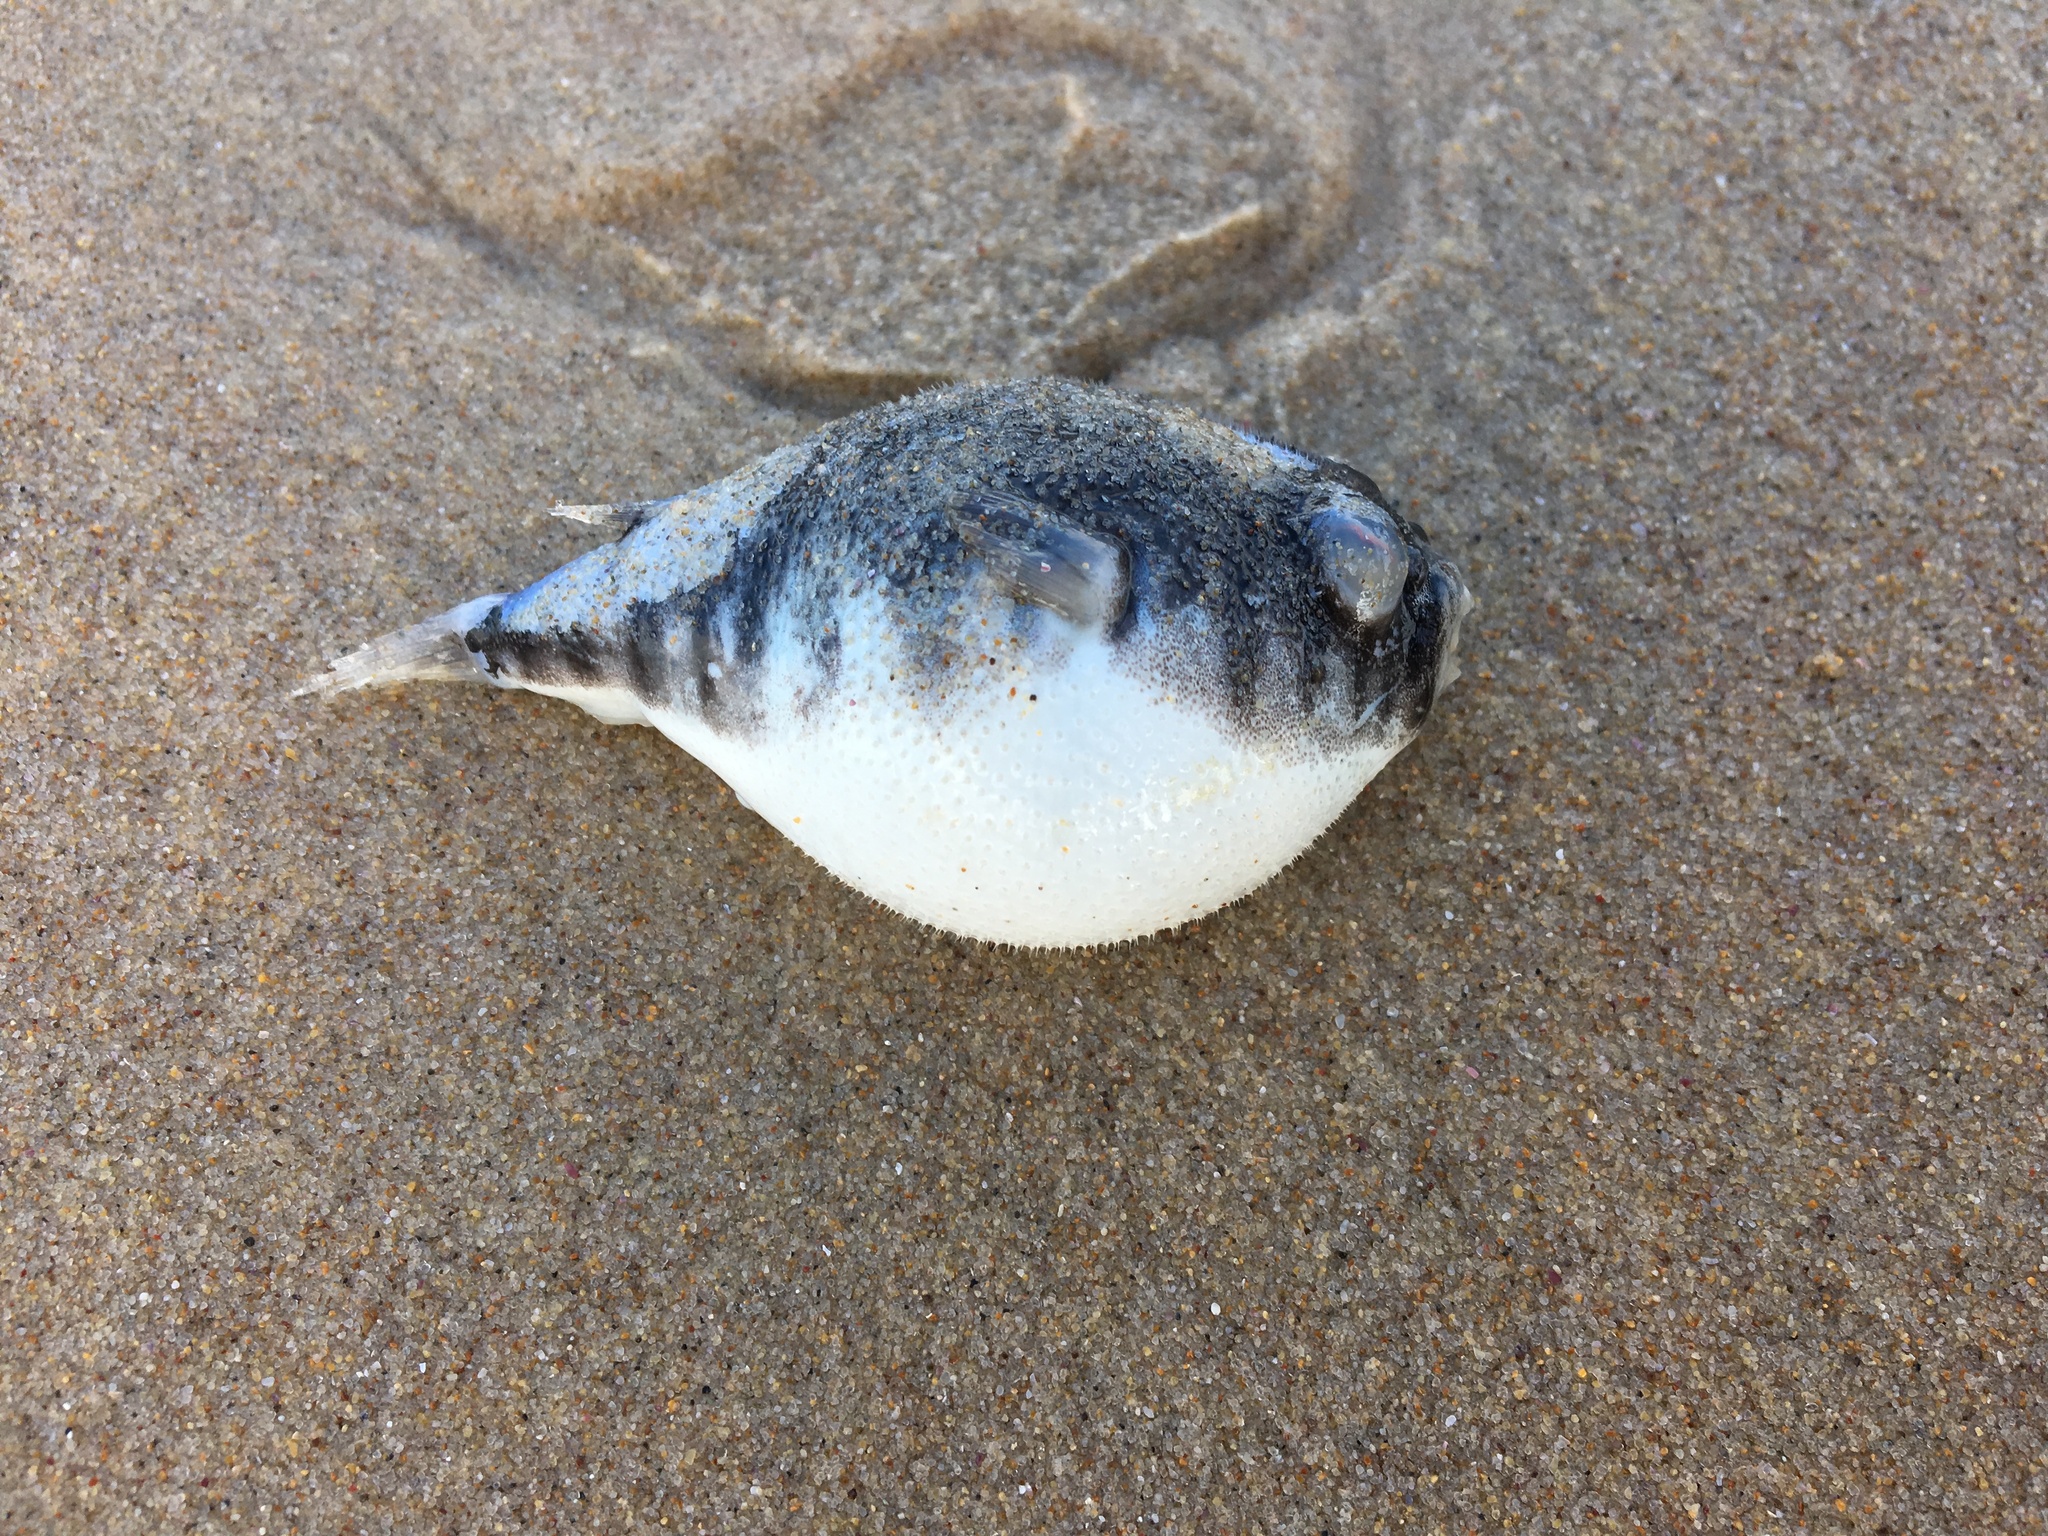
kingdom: Animalia
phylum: Chordata
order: Tetraodontiformes
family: Tetraodontidae
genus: Tetractenos
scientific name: Tetractenos hamiltoni
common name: Common toadfish
